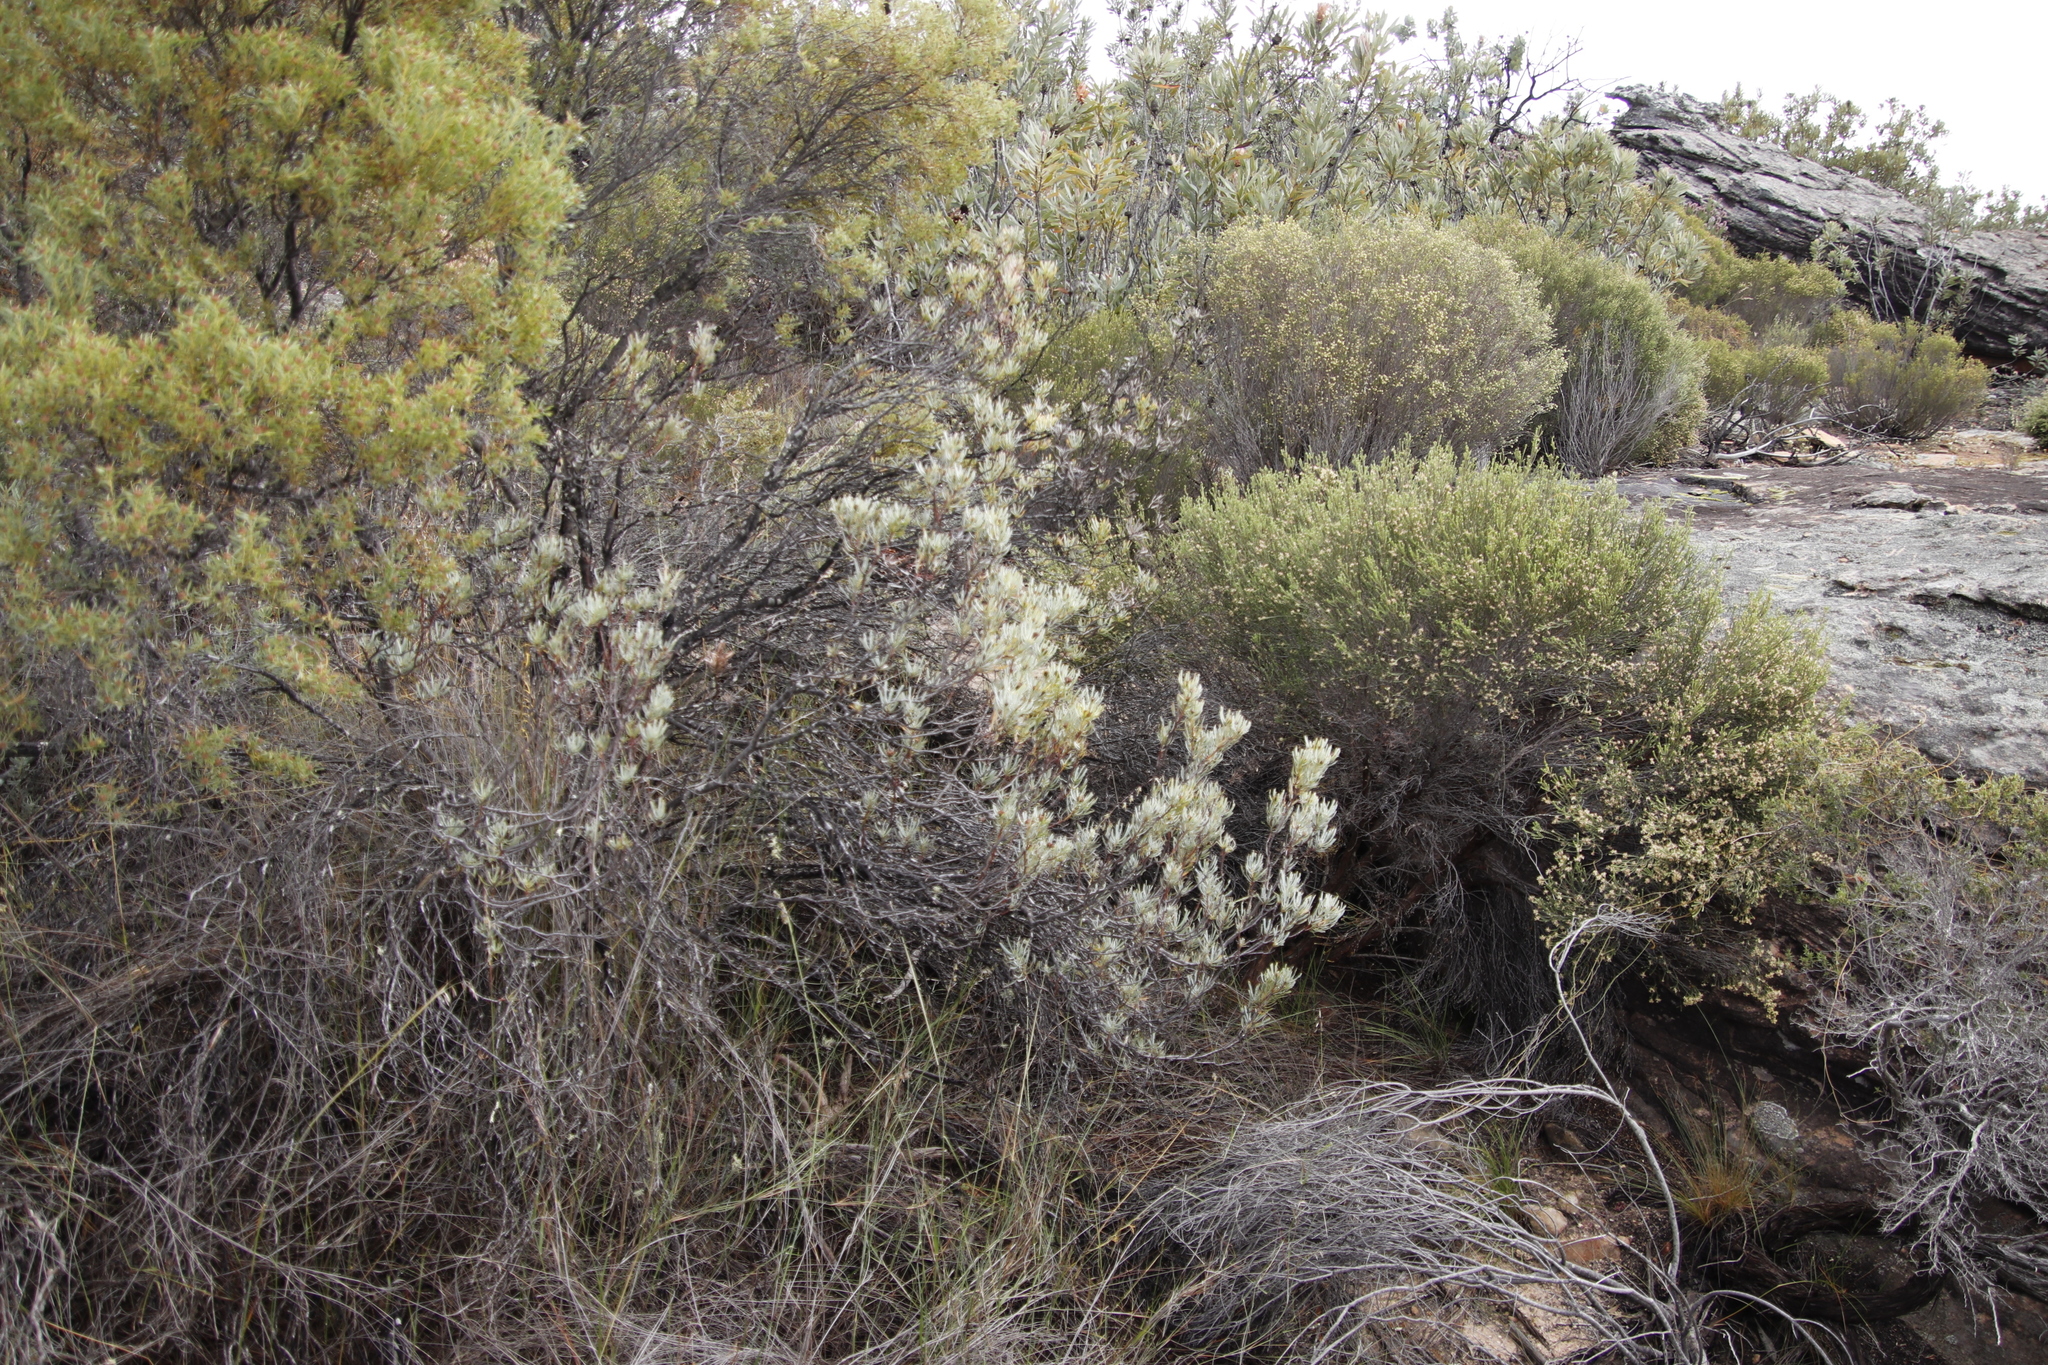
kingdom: Plantae
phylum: Tracheophyta
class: Magnoliopsida
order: Proteales
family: Proteaceae
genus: Leucadendron
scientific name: Leucadendron meyerianum
